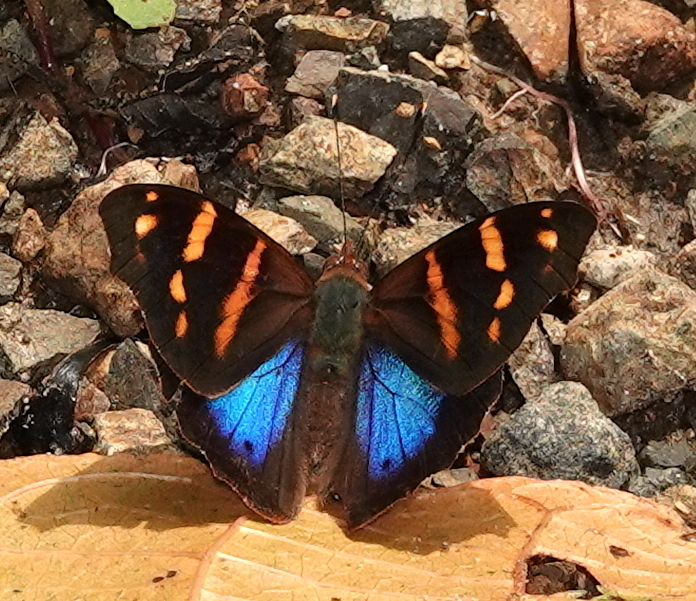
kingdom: Animalia
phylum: Arthropoda
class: Insecta
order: Lepidoptera
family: Nymphalidae
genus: Epiphile
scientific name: Epiphile orea
